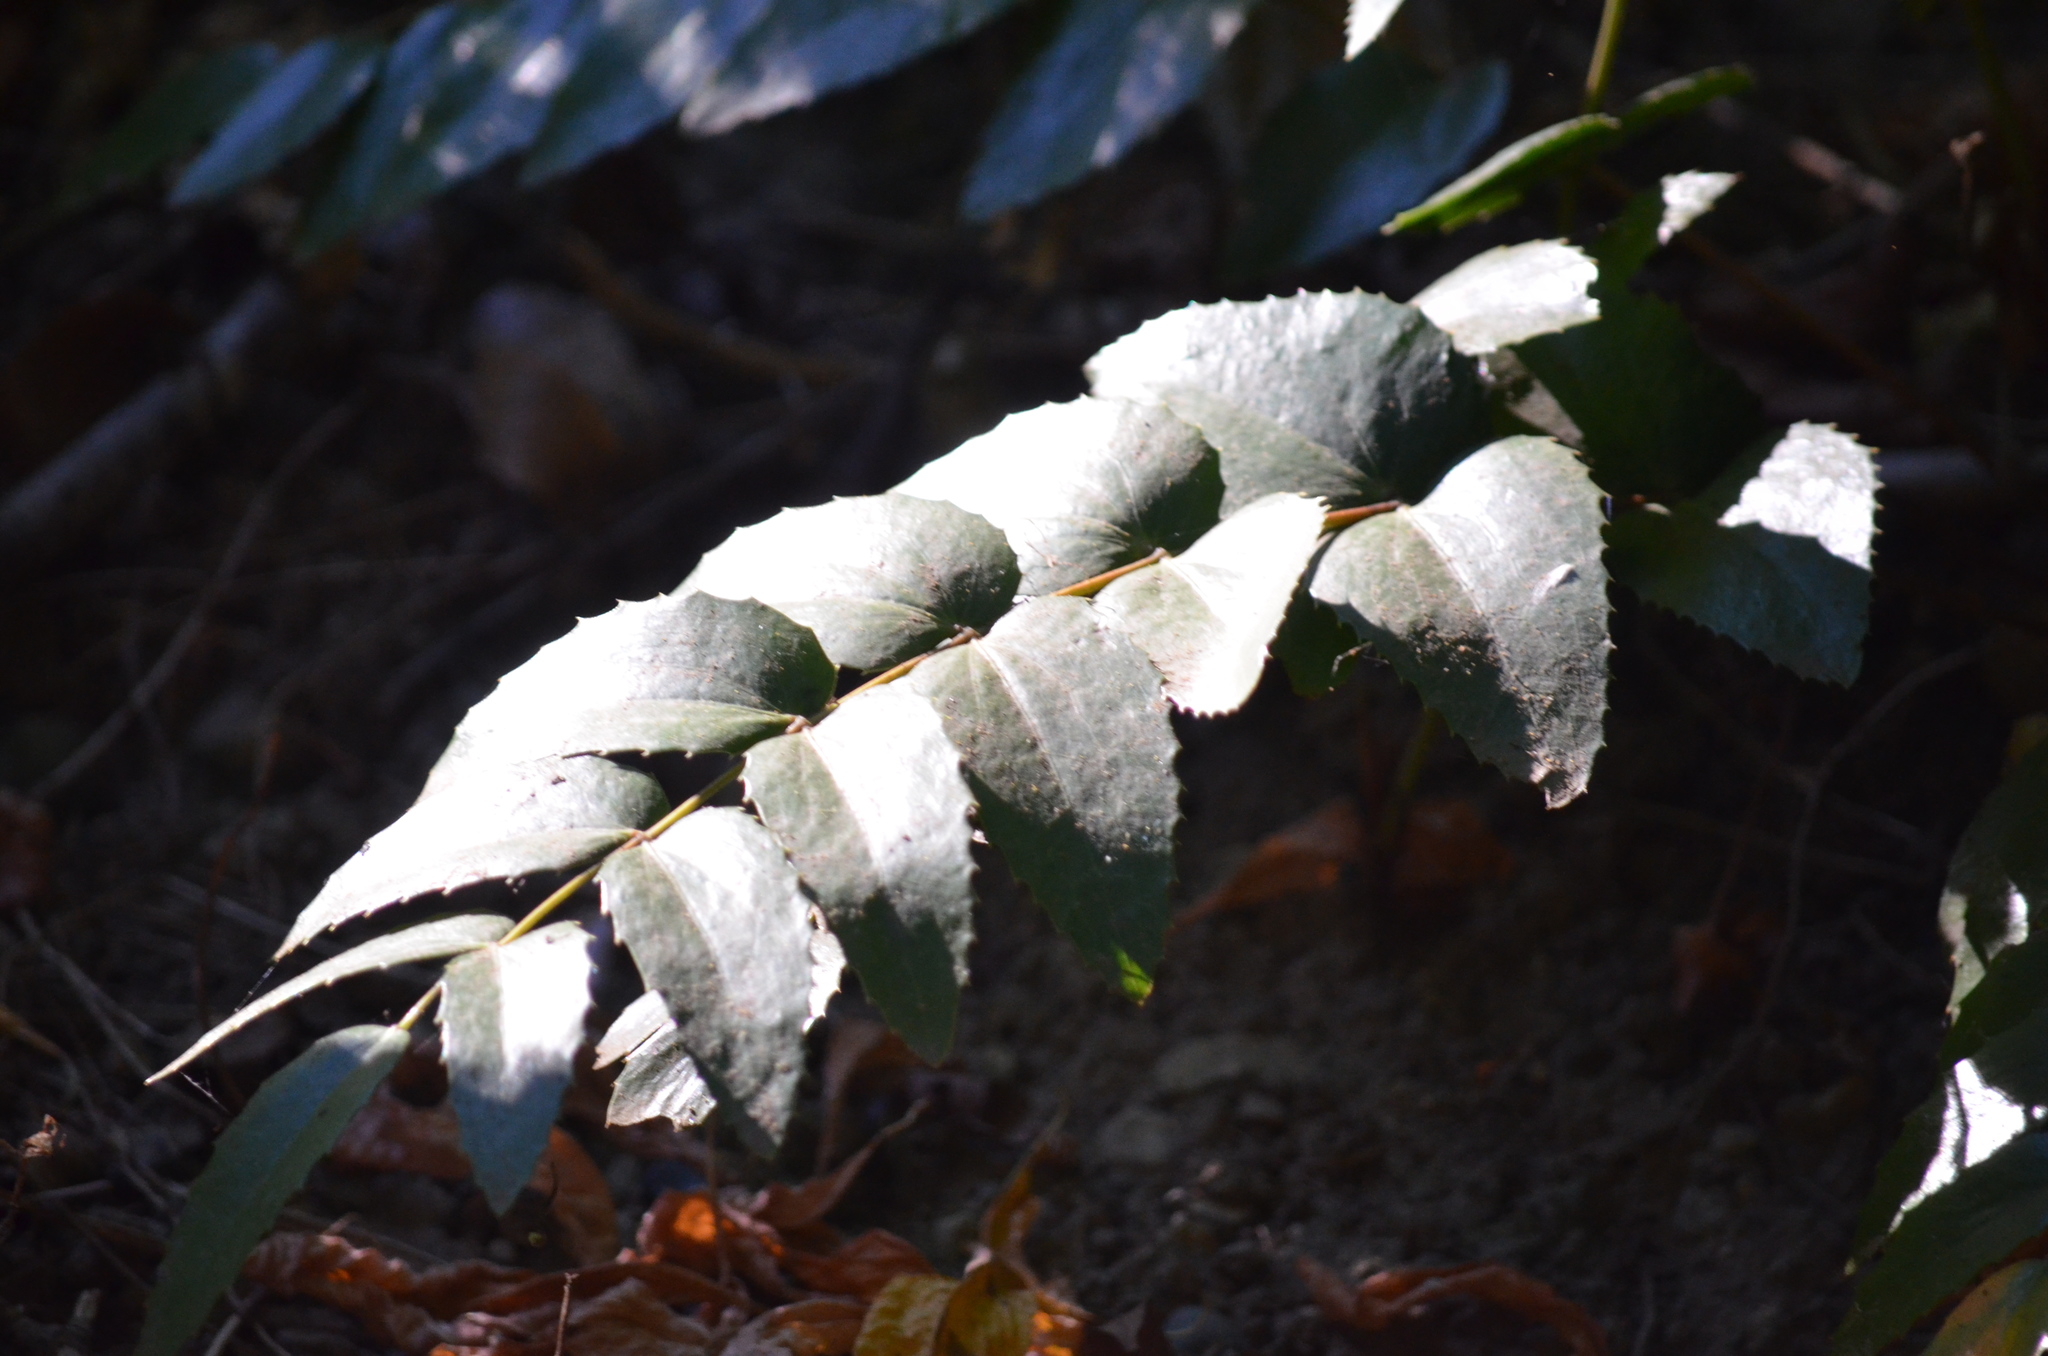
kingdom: Plantae
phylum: Tracheophyta
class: Magnoliopsida
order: Ranunculales
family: Berberidaceae
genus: Mahonia
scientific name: Mahonia nervosa
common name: Cascade oregon-grape
